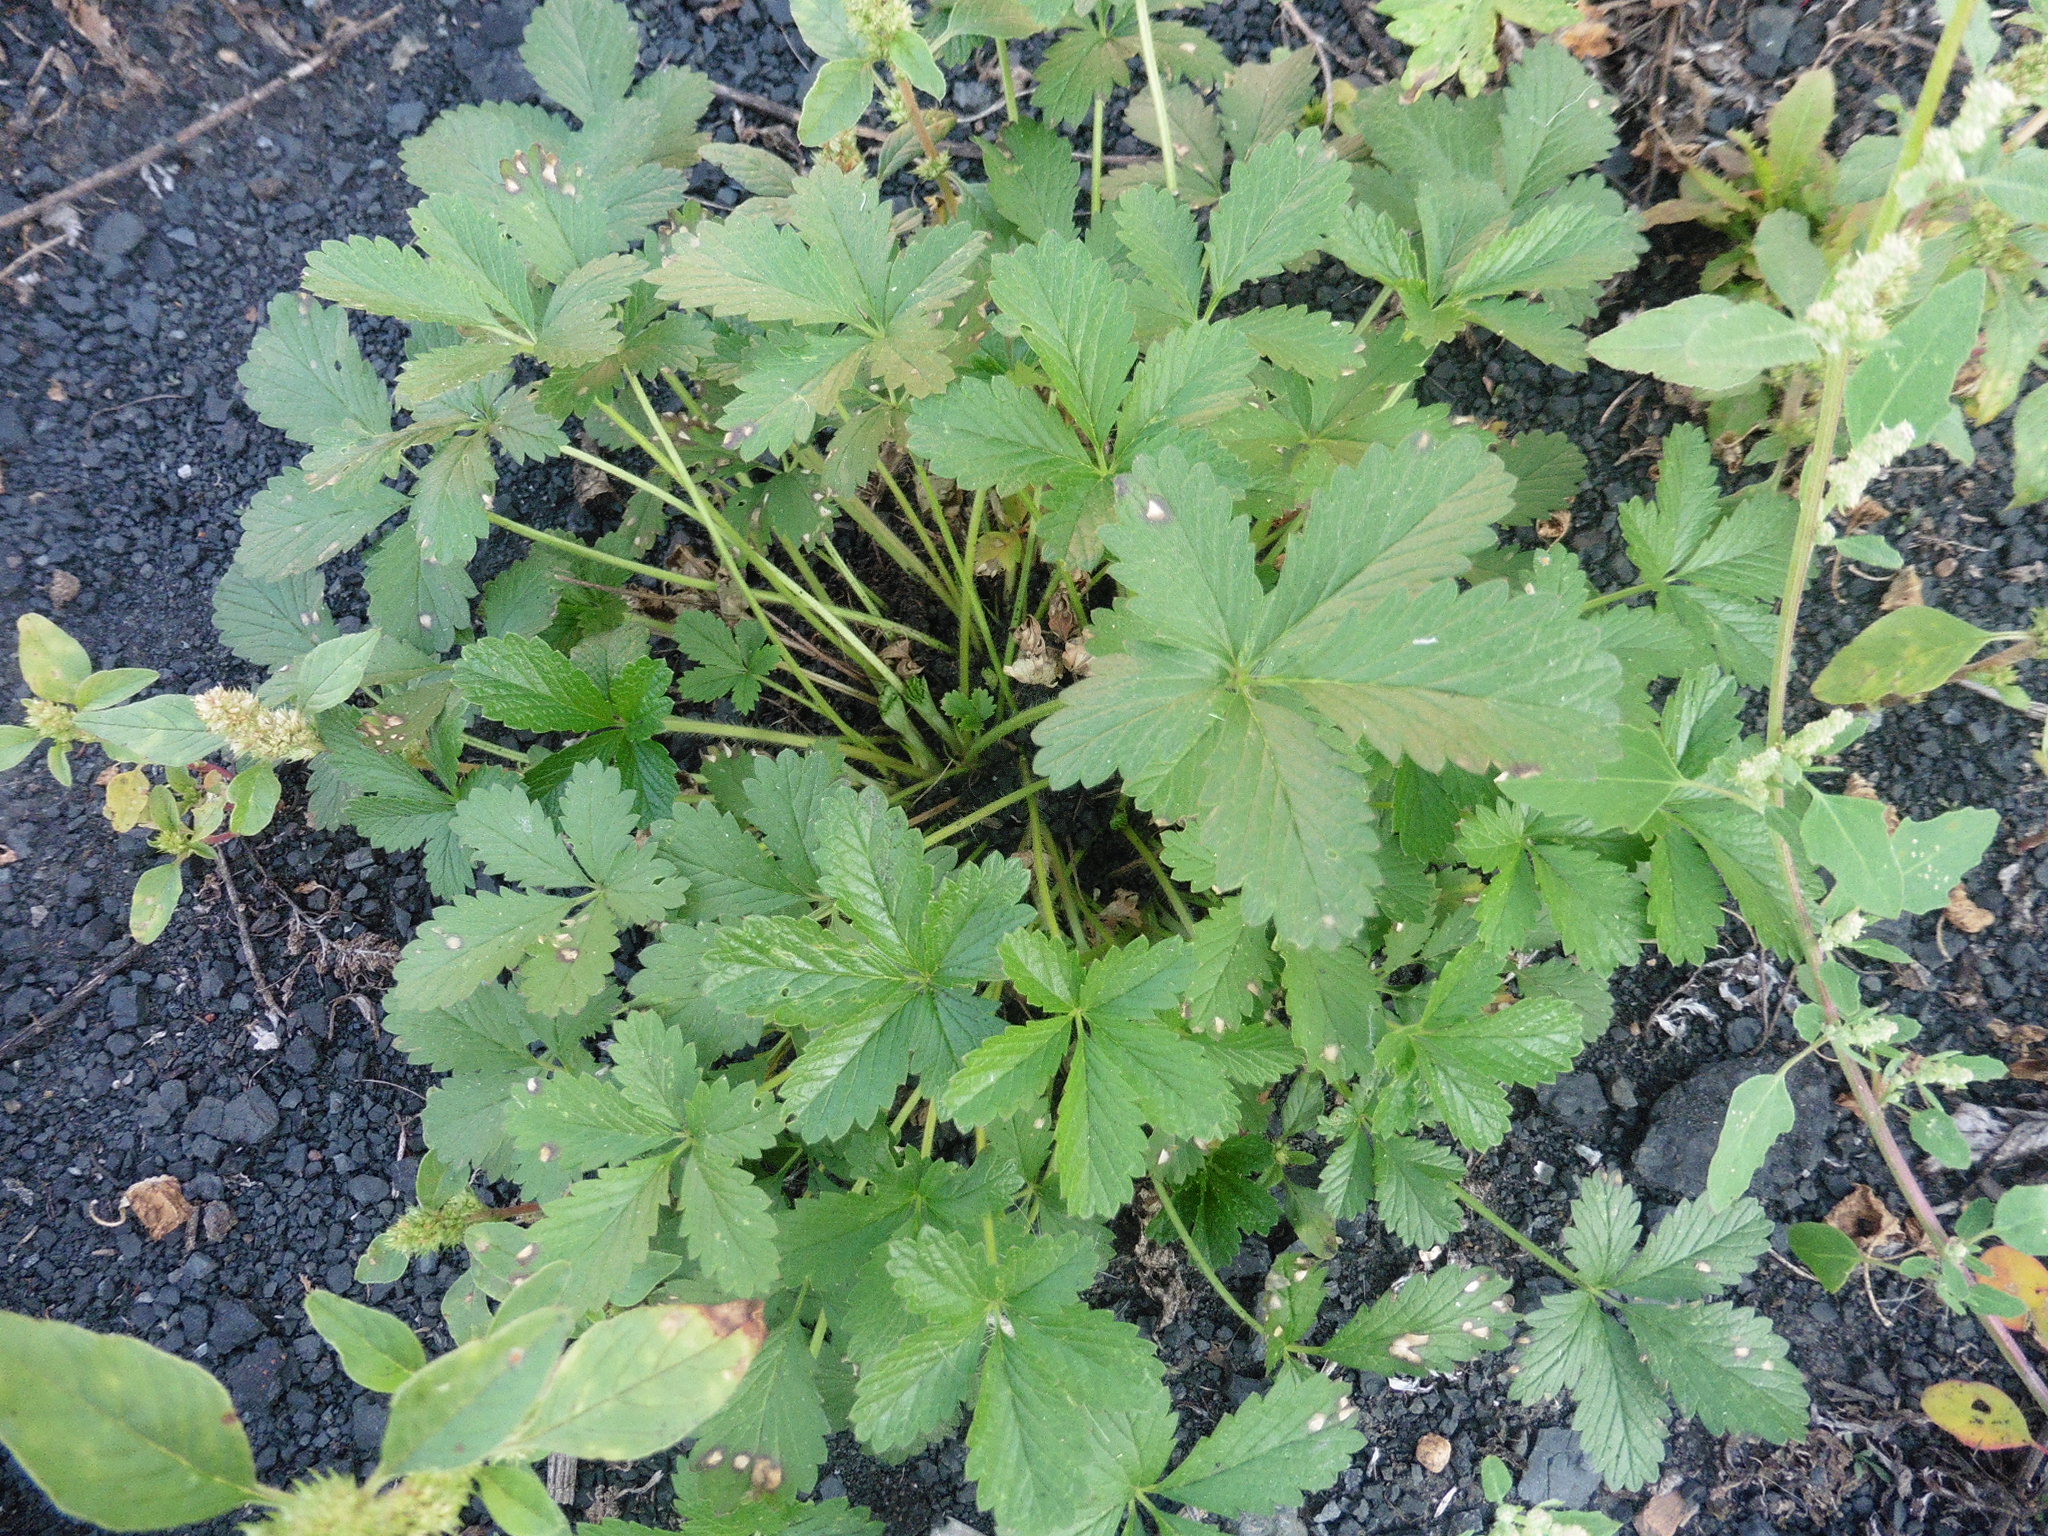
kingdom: Plantae
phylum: Tracheophyta
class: Magnoliopsida
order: Rosales
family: Rosaceae
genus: Potentilla
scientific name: Potentilla intermedia
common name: Downy cinquefoil
